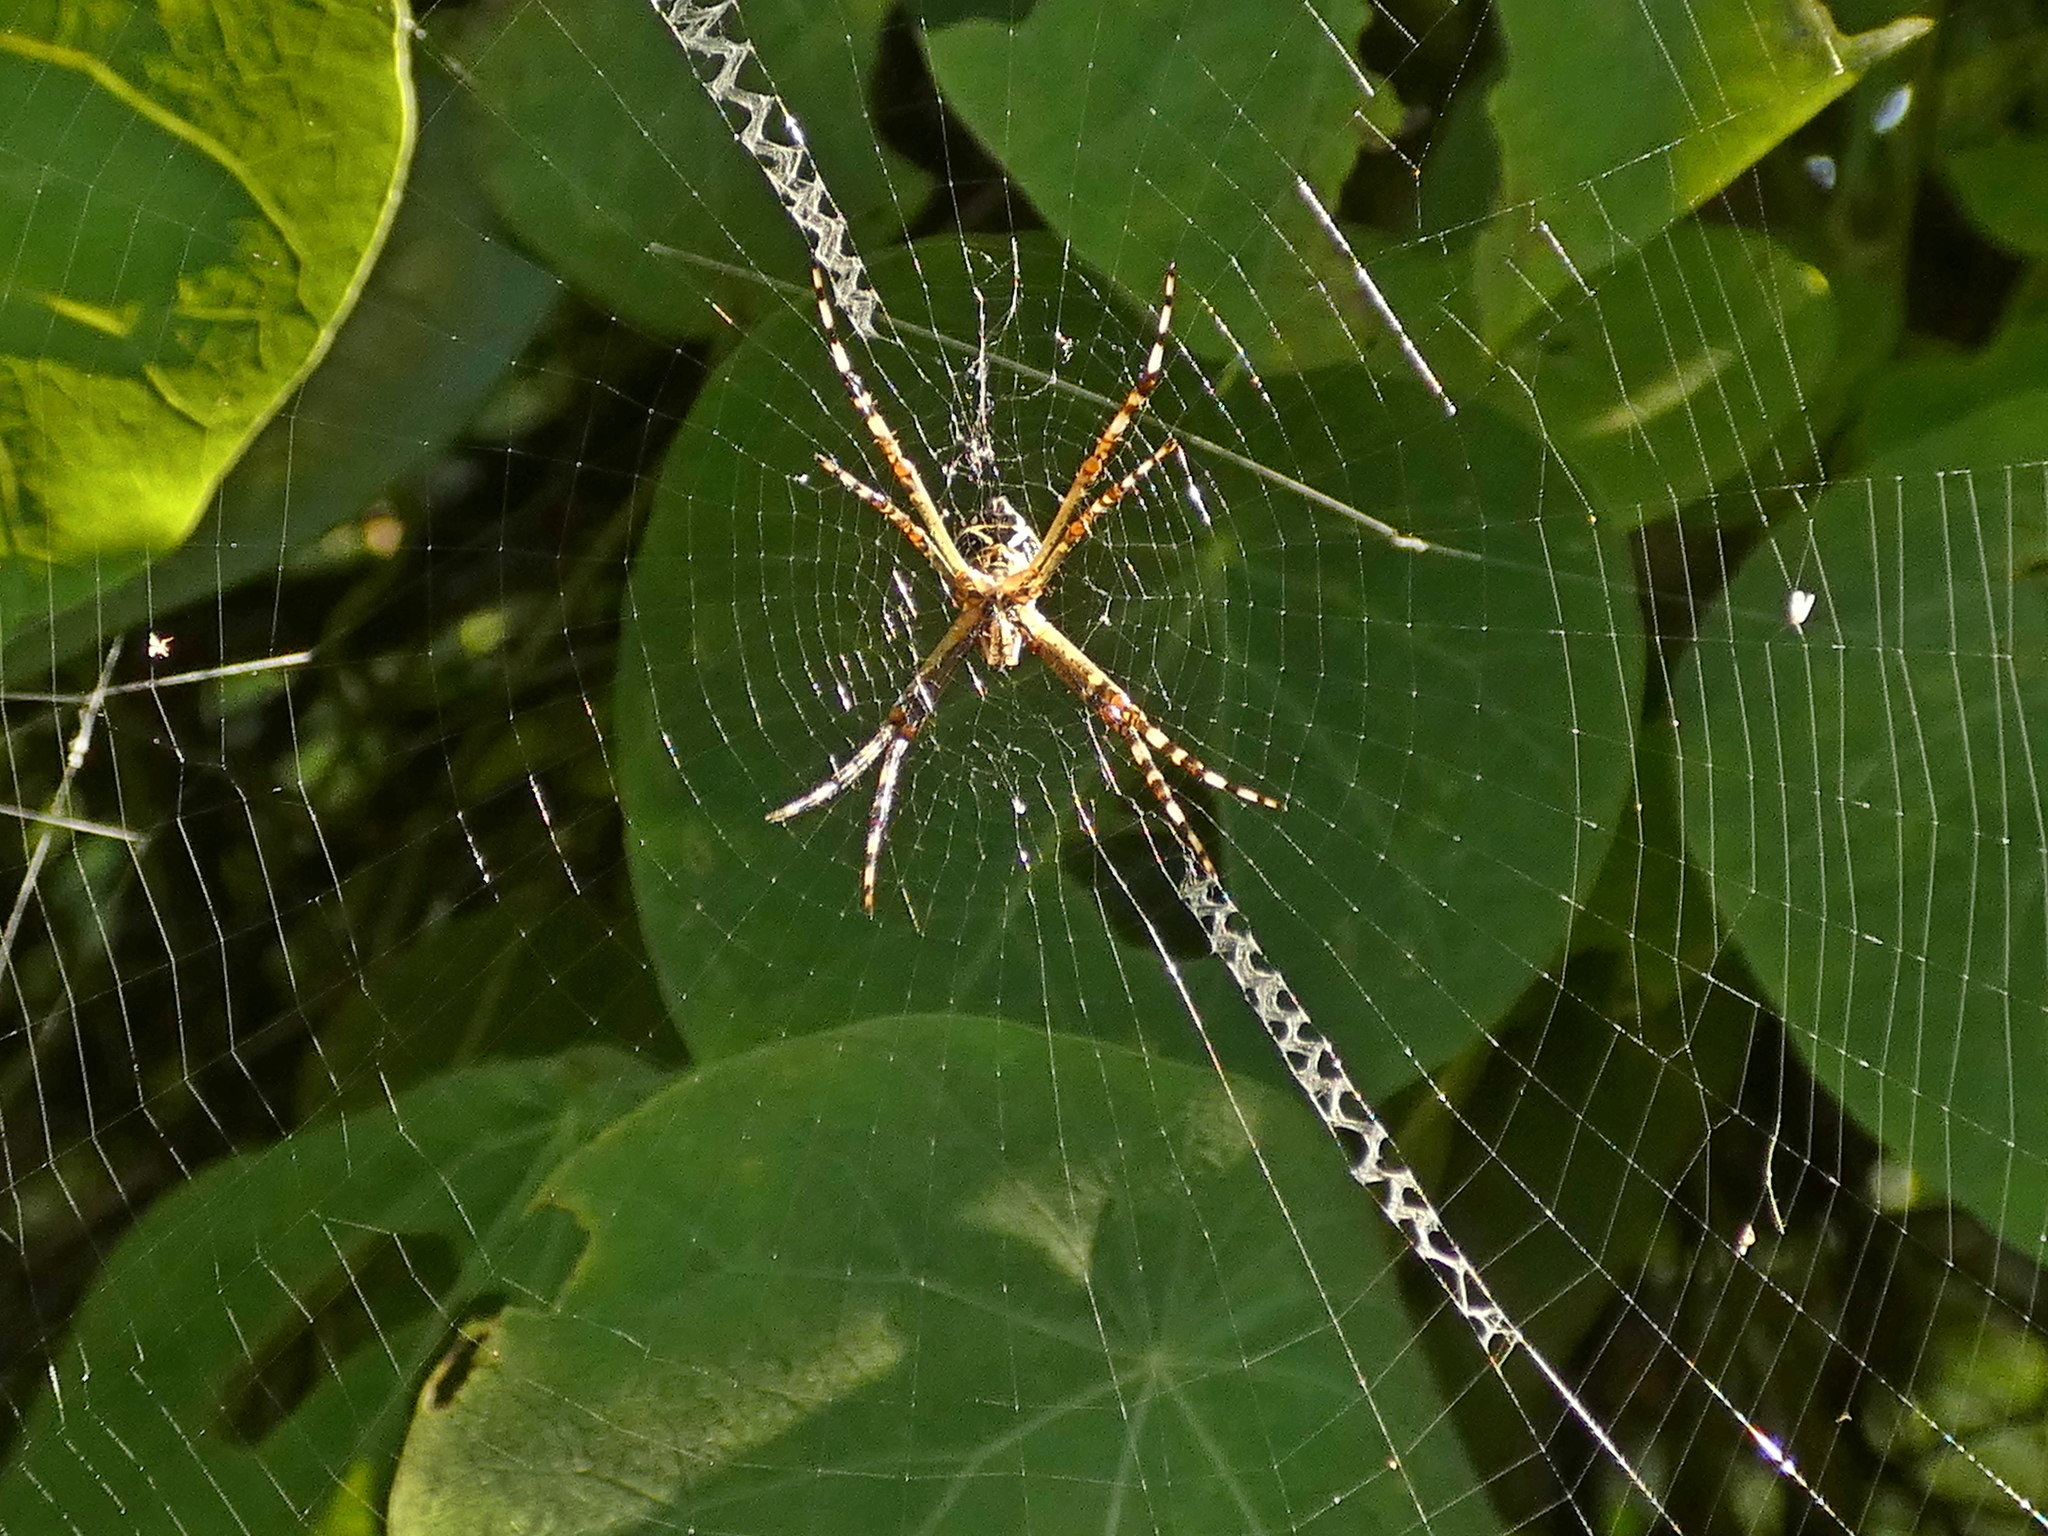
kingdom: Animalia
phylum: Arthropoda
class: Arachnida
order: Araneae
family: Araneidae
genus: Argiope
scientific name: Argiope argentata
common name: Orb weavers
